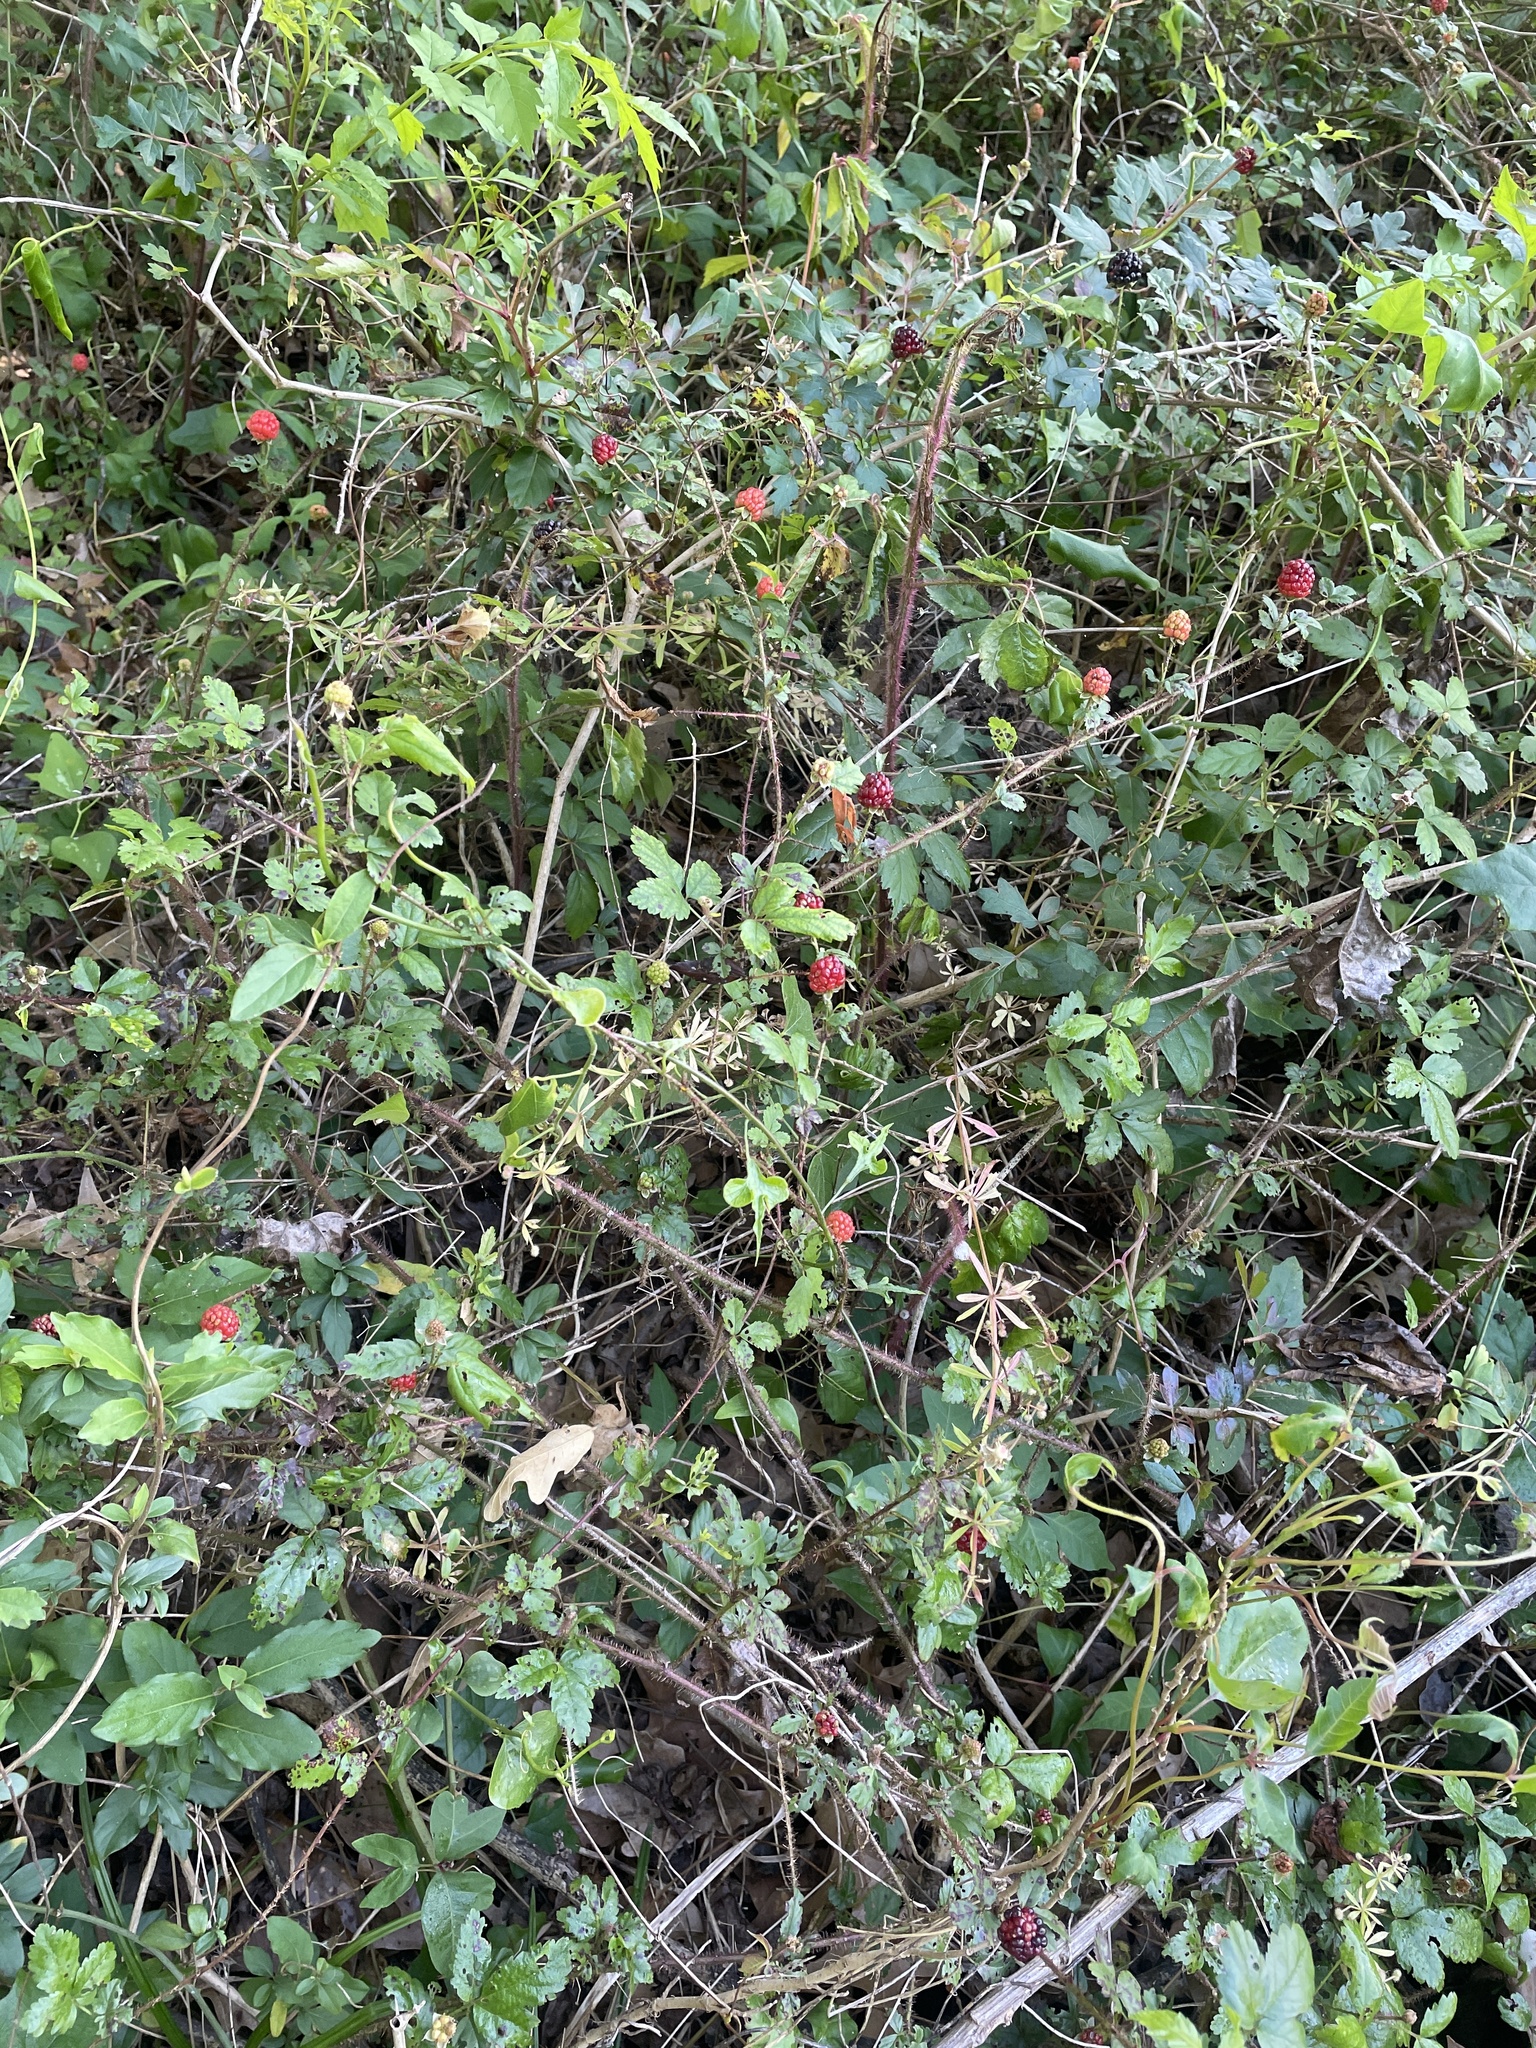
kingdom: Plantae
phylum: Tracheophyta
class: Magnoliopsida
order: Rosales
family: Rosaceae
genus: Rubus
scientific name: Rubus trivialis
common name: Southern dewberry
